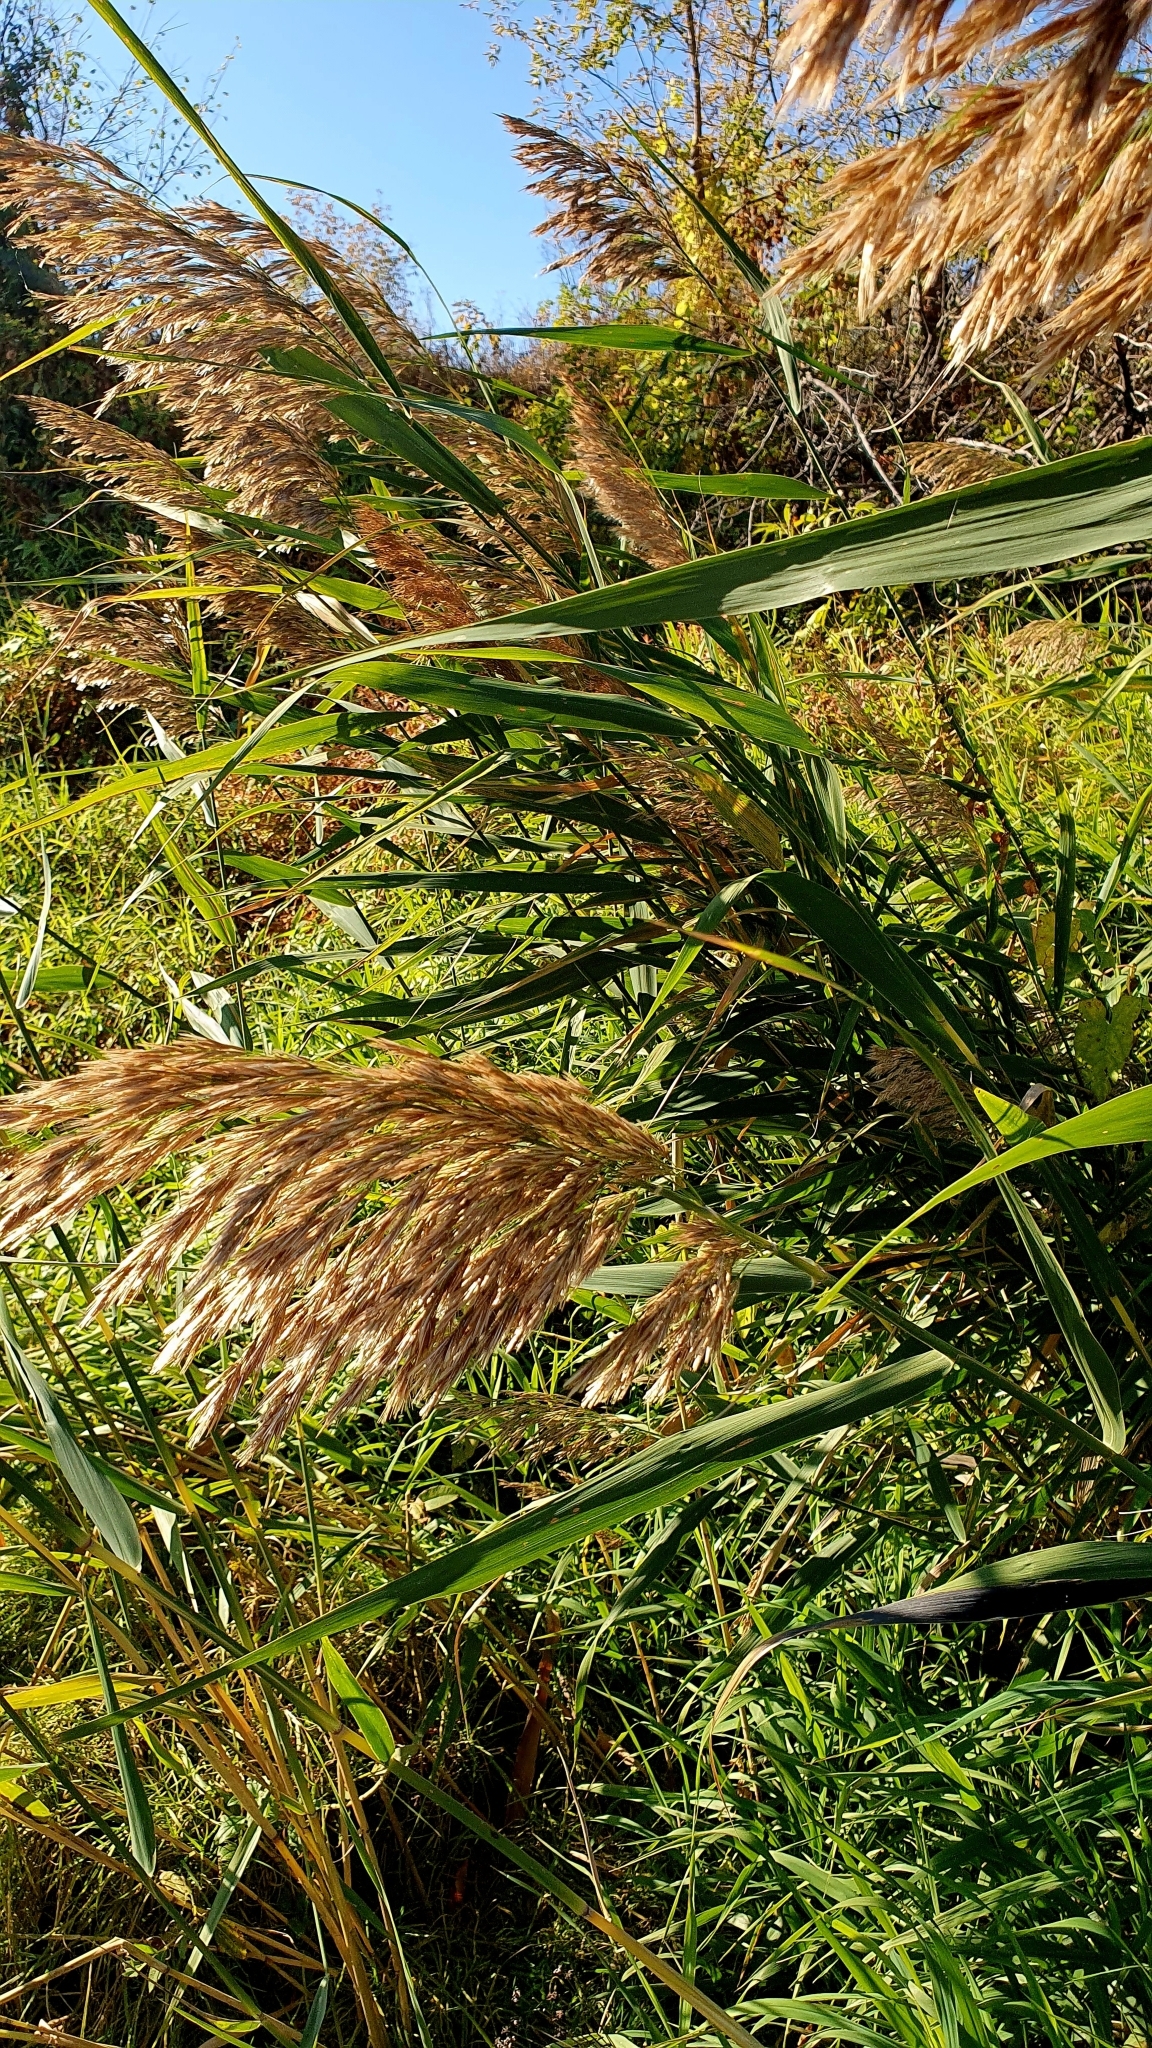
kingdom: Plantae
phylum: Tracheophyta
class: Liliopsida
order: Poales
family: Poaceae
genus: Phragmites
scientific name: Phragmites australis
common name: Common reed
